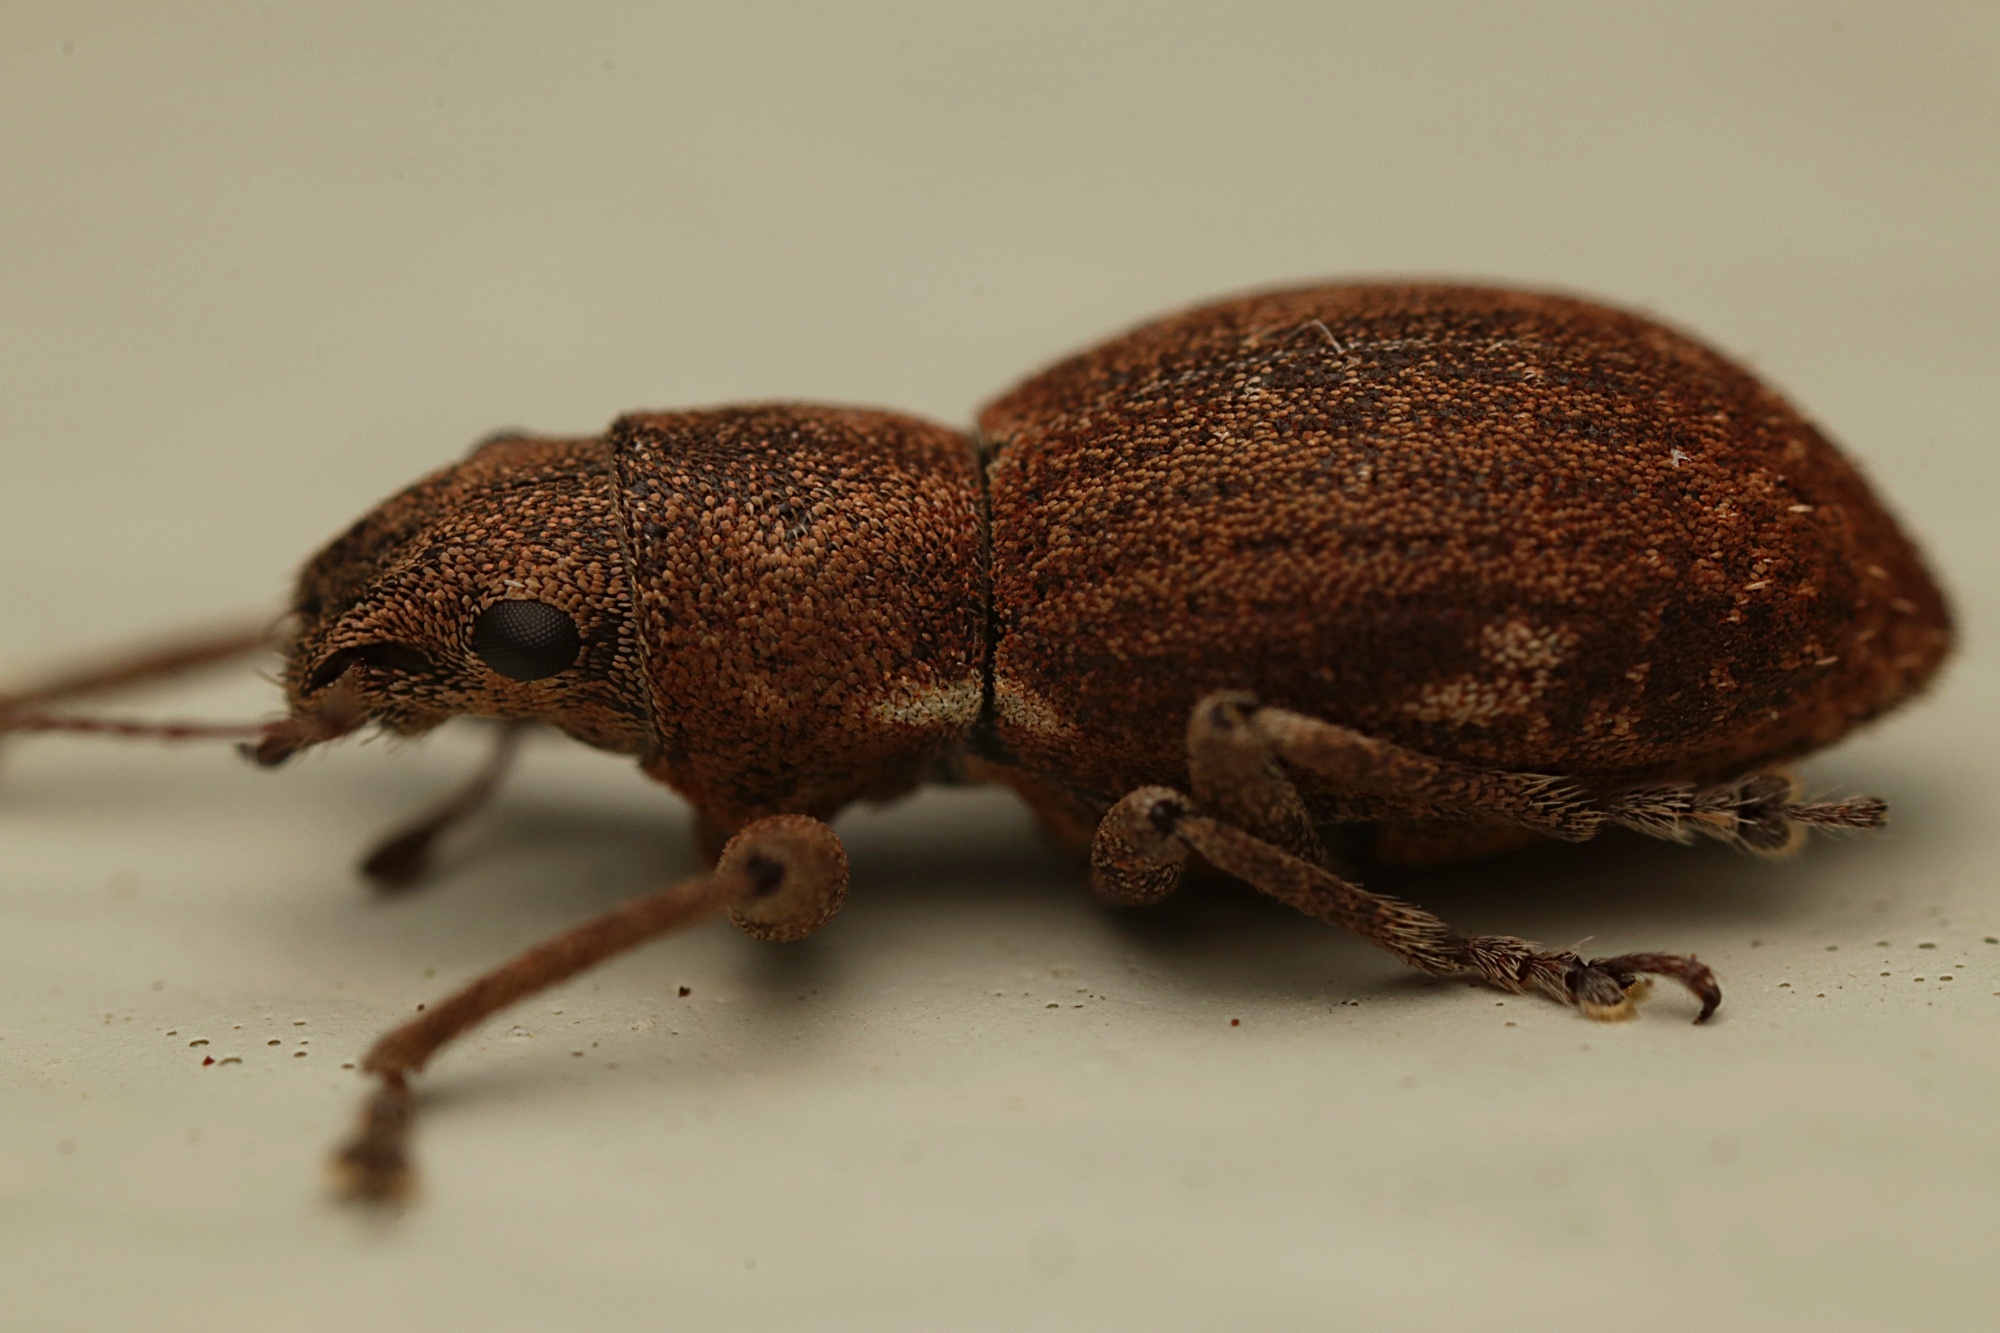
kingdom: Animalia
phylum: Arthropoda
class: Insecta
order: Coleoptera
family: Curculionidae
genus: Naupactus
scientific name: Naupactus cervinus
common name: Fuller rose beetle
